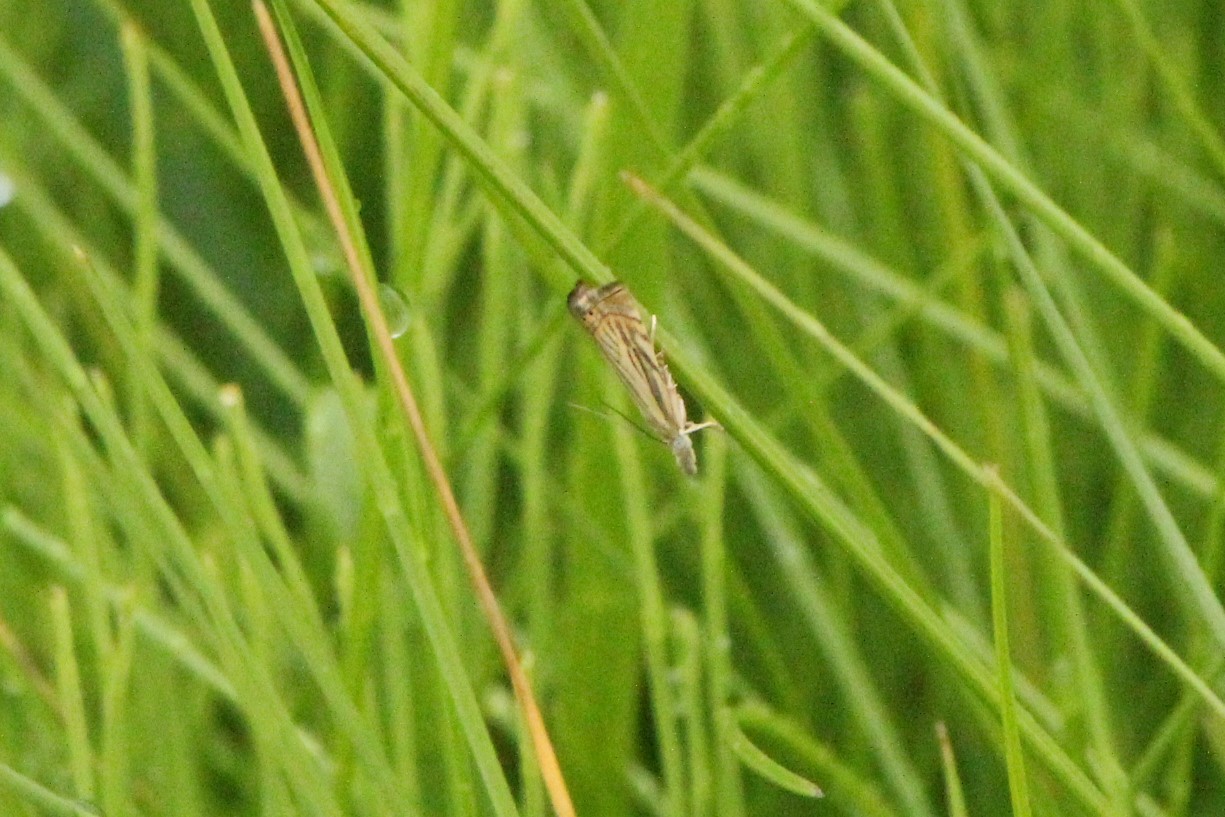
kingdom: Animalia
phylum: Arthropoda
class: Insecta
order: Lepidoptera
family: Crambidae
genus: Chrysoteuchia
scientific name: Chrysoteuchia topiarius
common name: Topiary grass-veneer
